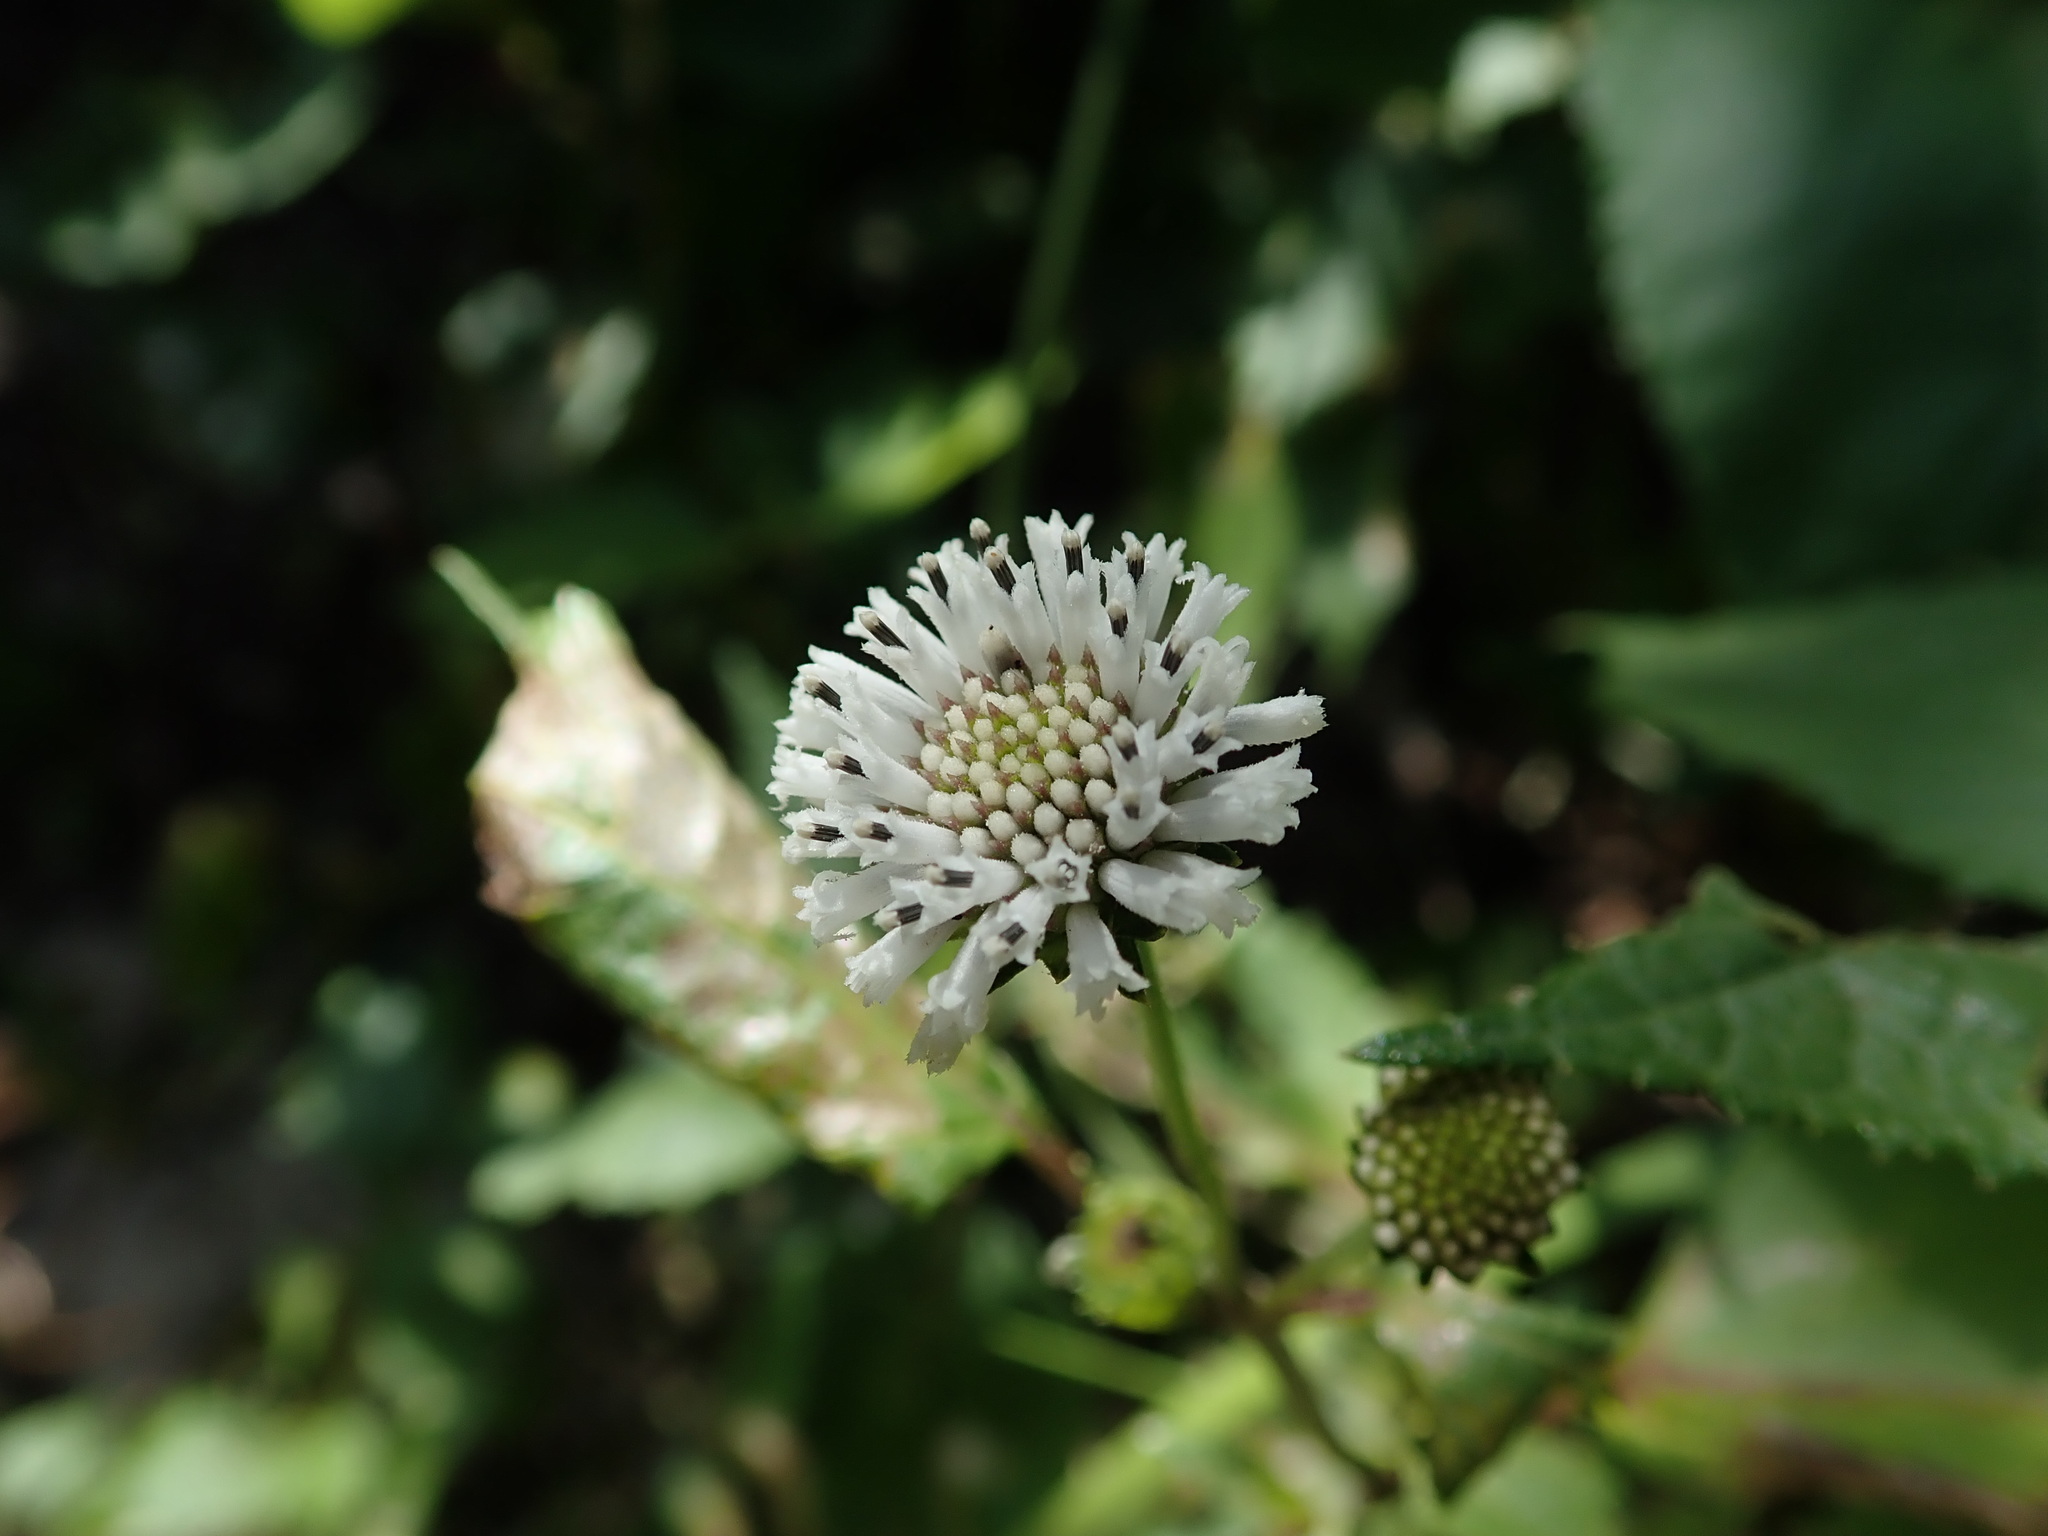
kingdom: Plantae
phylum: Tracheophyta
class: Magnoliopsida
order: Asterales
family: Asteraceae
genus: Melanthera
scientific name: Melanthera nivea
